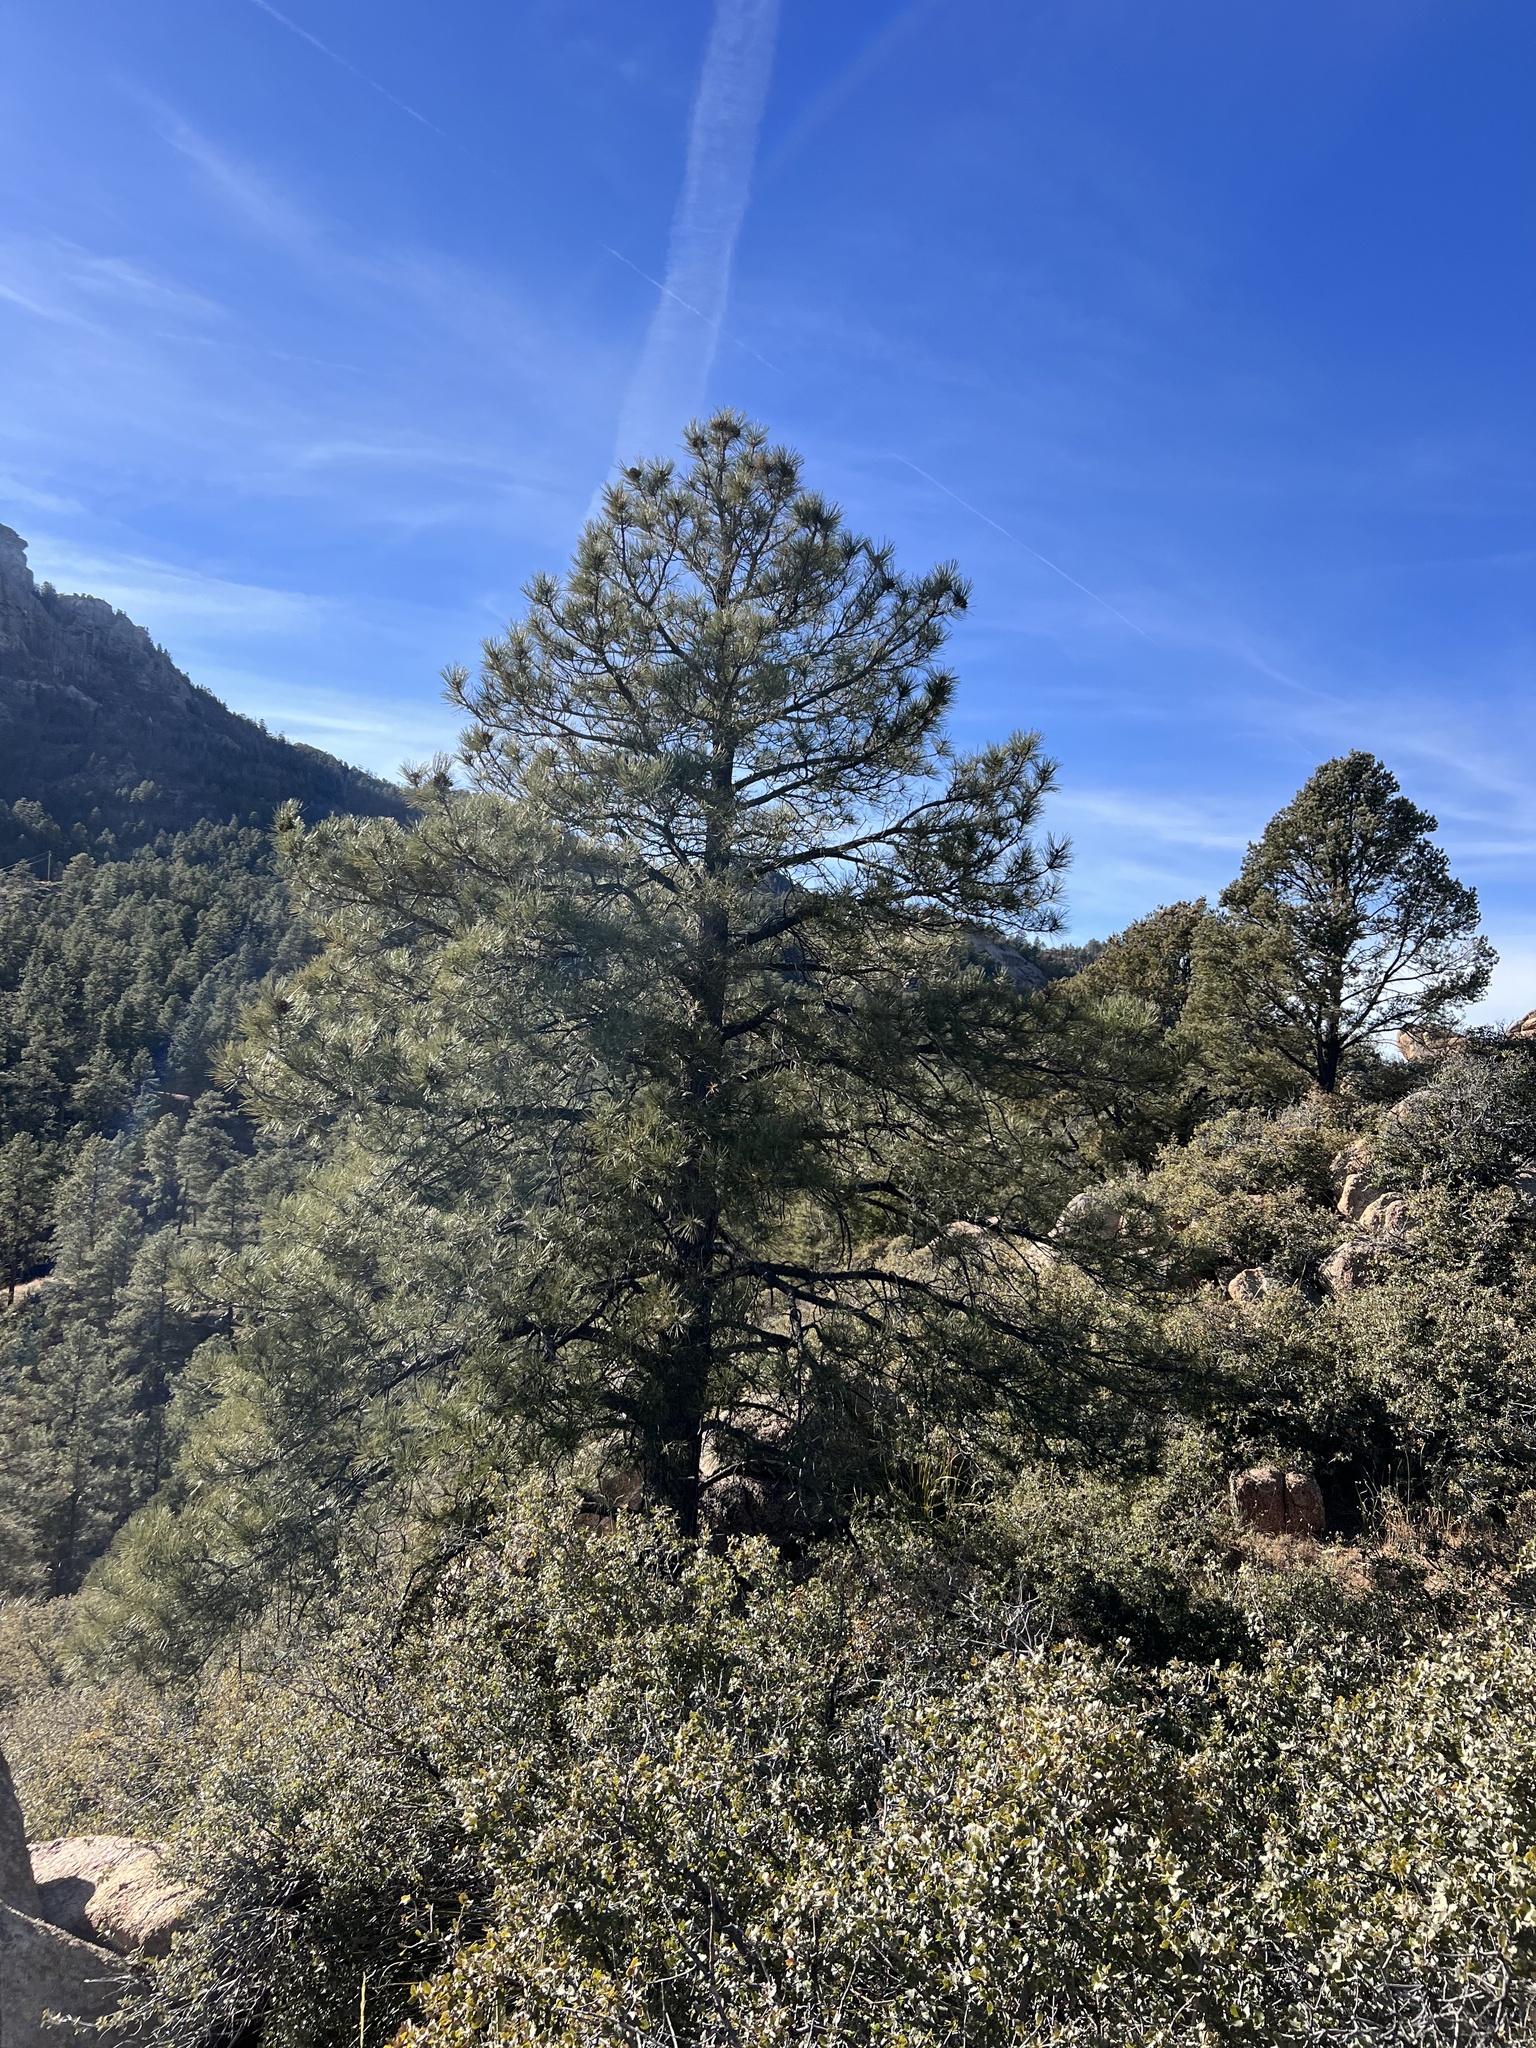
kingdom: Plantae
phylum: Tracheophyta
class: Pinopsida
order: Pinales
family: Pinaceae
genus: Pinus
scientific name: Pinus ponderosa
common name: Western yellow-pine
